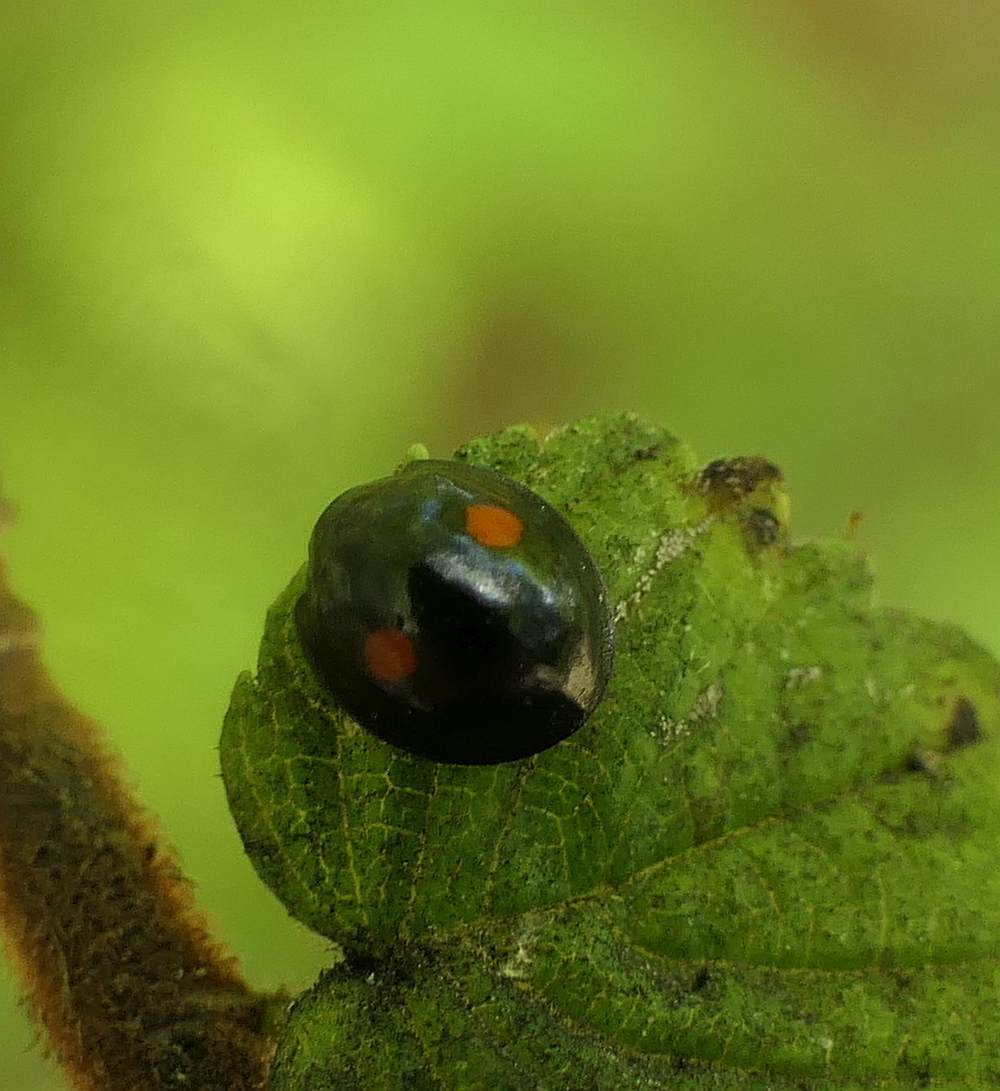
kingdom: Animalia
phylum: Arthropoda
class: Insecta
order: Coleoptera
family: Coccinellidae
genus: Chilocorus
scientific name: Chilocorus stigma
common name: Twicestabbed lady beetle
